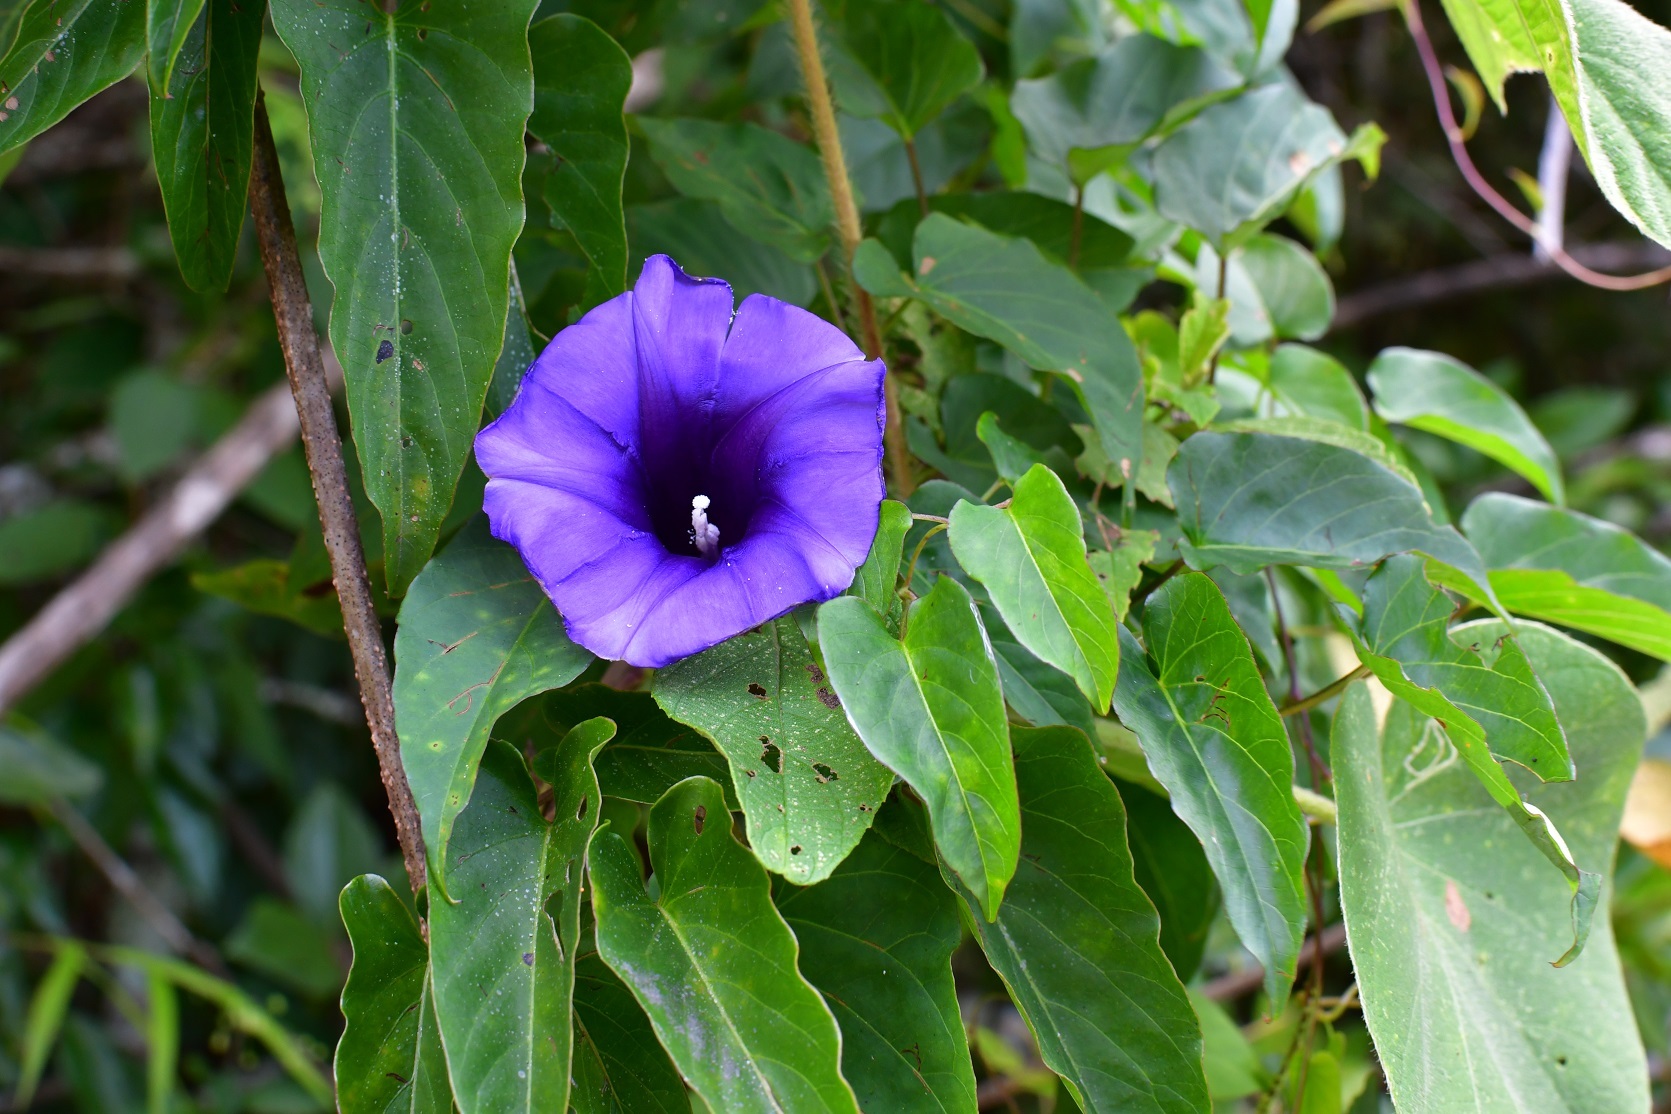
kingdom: Plantae
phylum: Tracheophyta
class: Magnoliopsida
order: Solanales
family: Convolvulaceae
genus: Ipomoea
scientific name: Ipomoea lindenii
